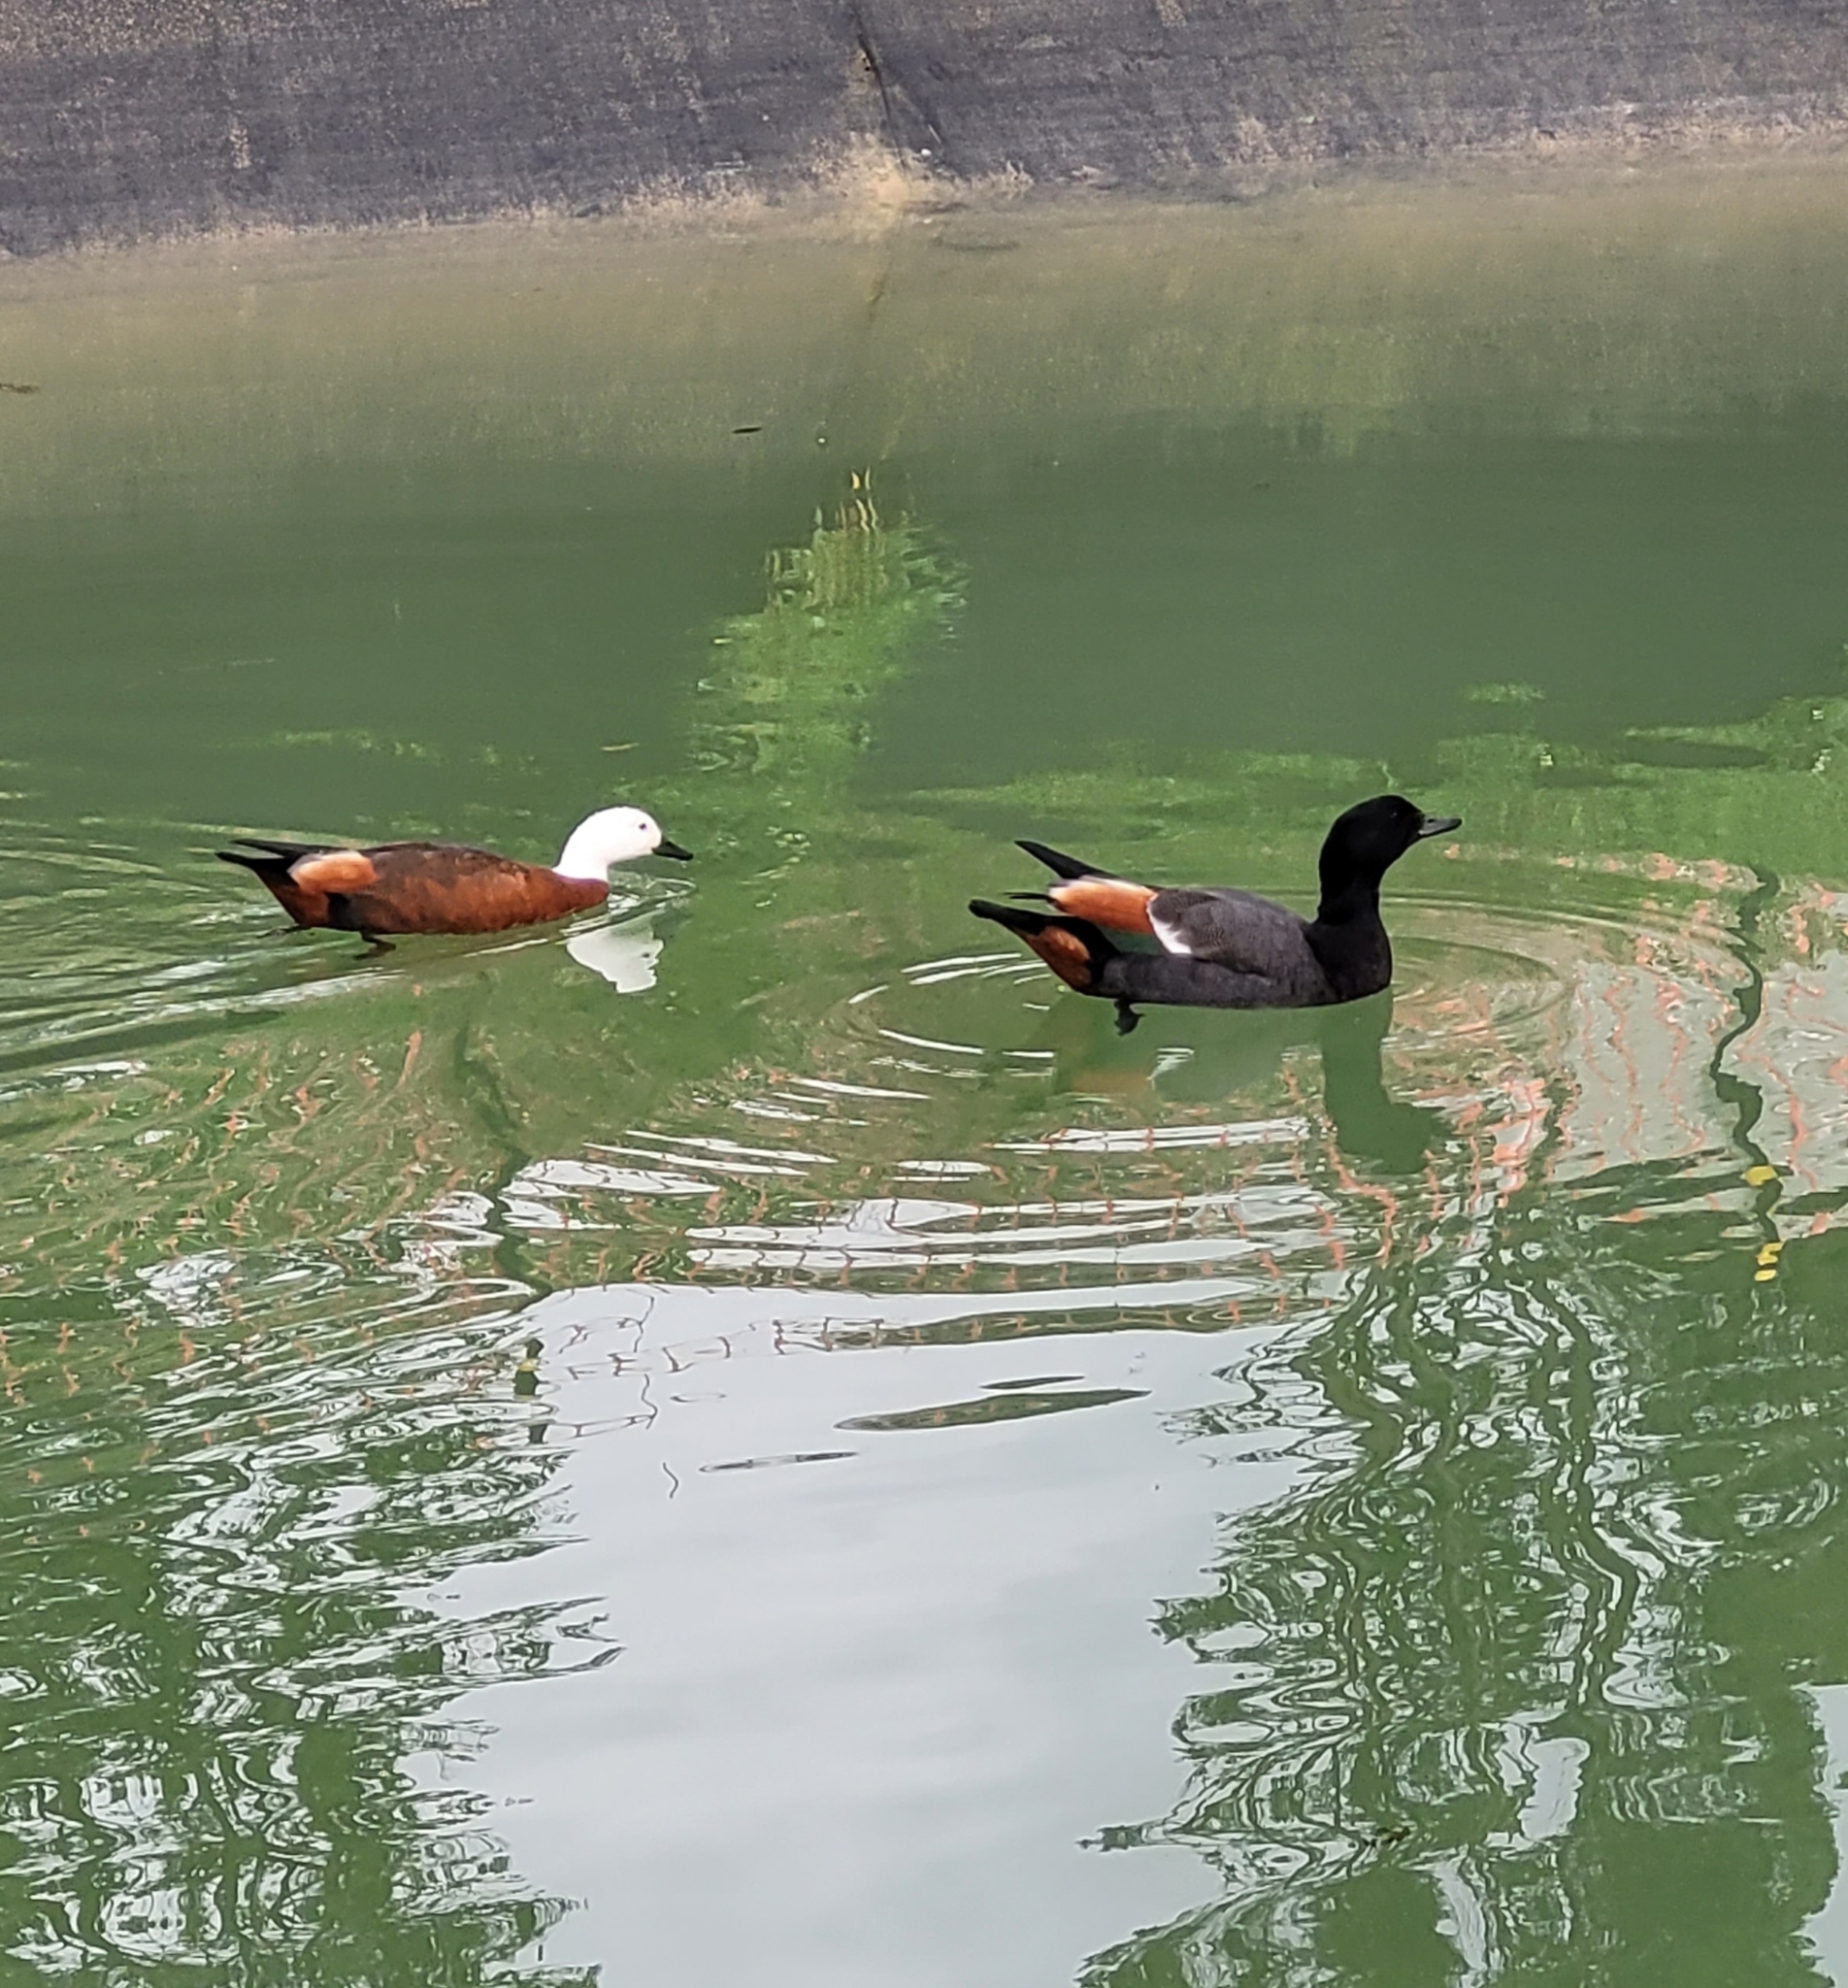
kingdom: Animalia
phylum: Chordata
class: Aves
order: Anseriformes
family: Anatidae
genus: Tadorna
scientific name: Tadorna variegata
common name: Paradise shelduck
